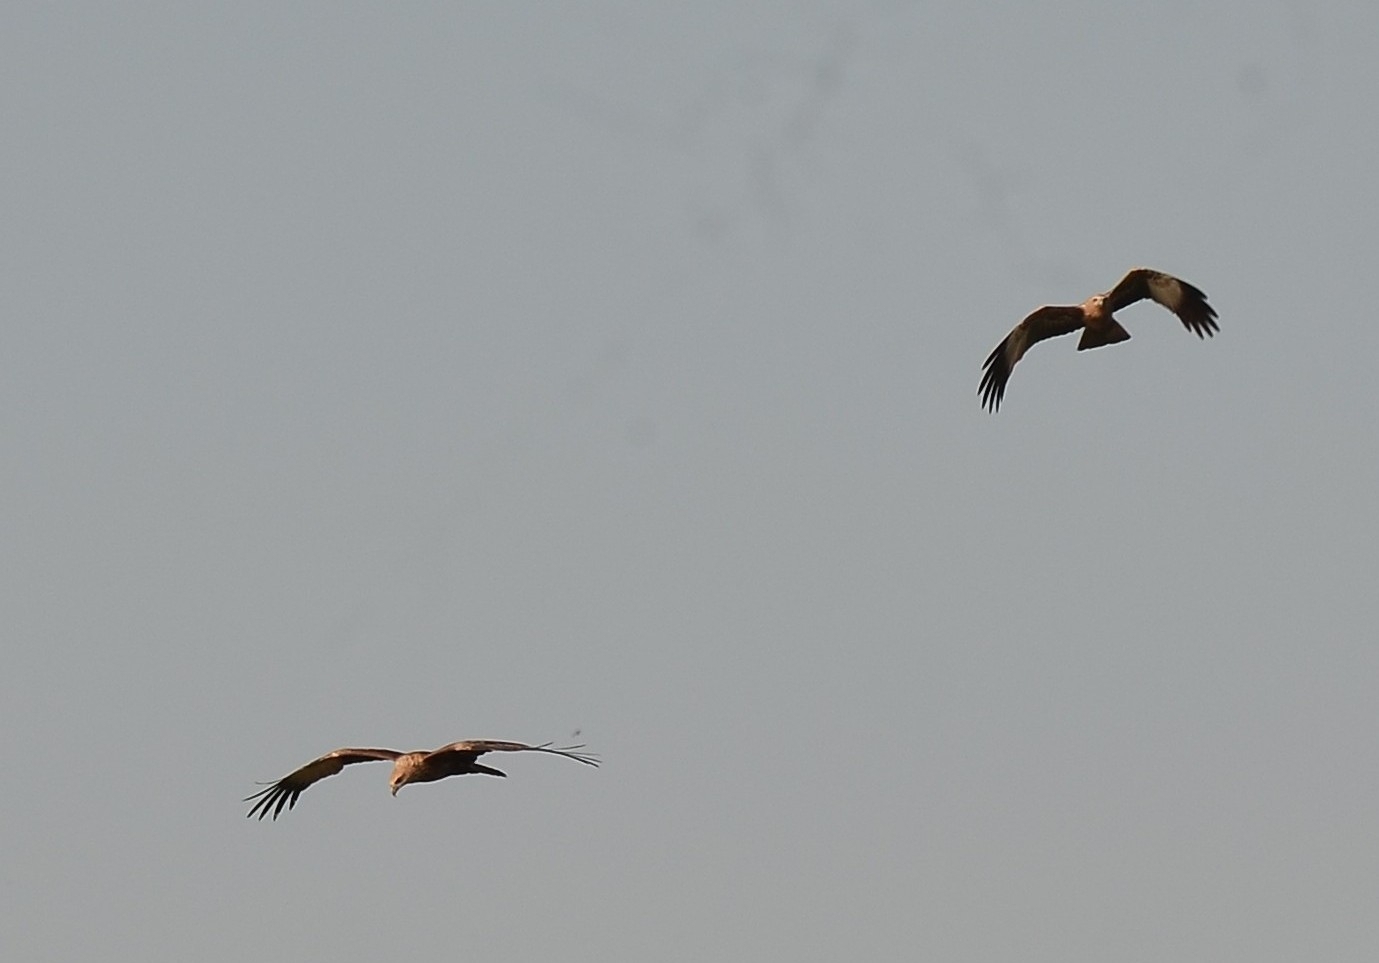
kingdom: Animalia
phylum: Chordata
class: Aves
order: Accipitriformes
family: Accipitridae
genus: Haliastur
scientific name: Haliastur indus
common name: Brahminy kite
